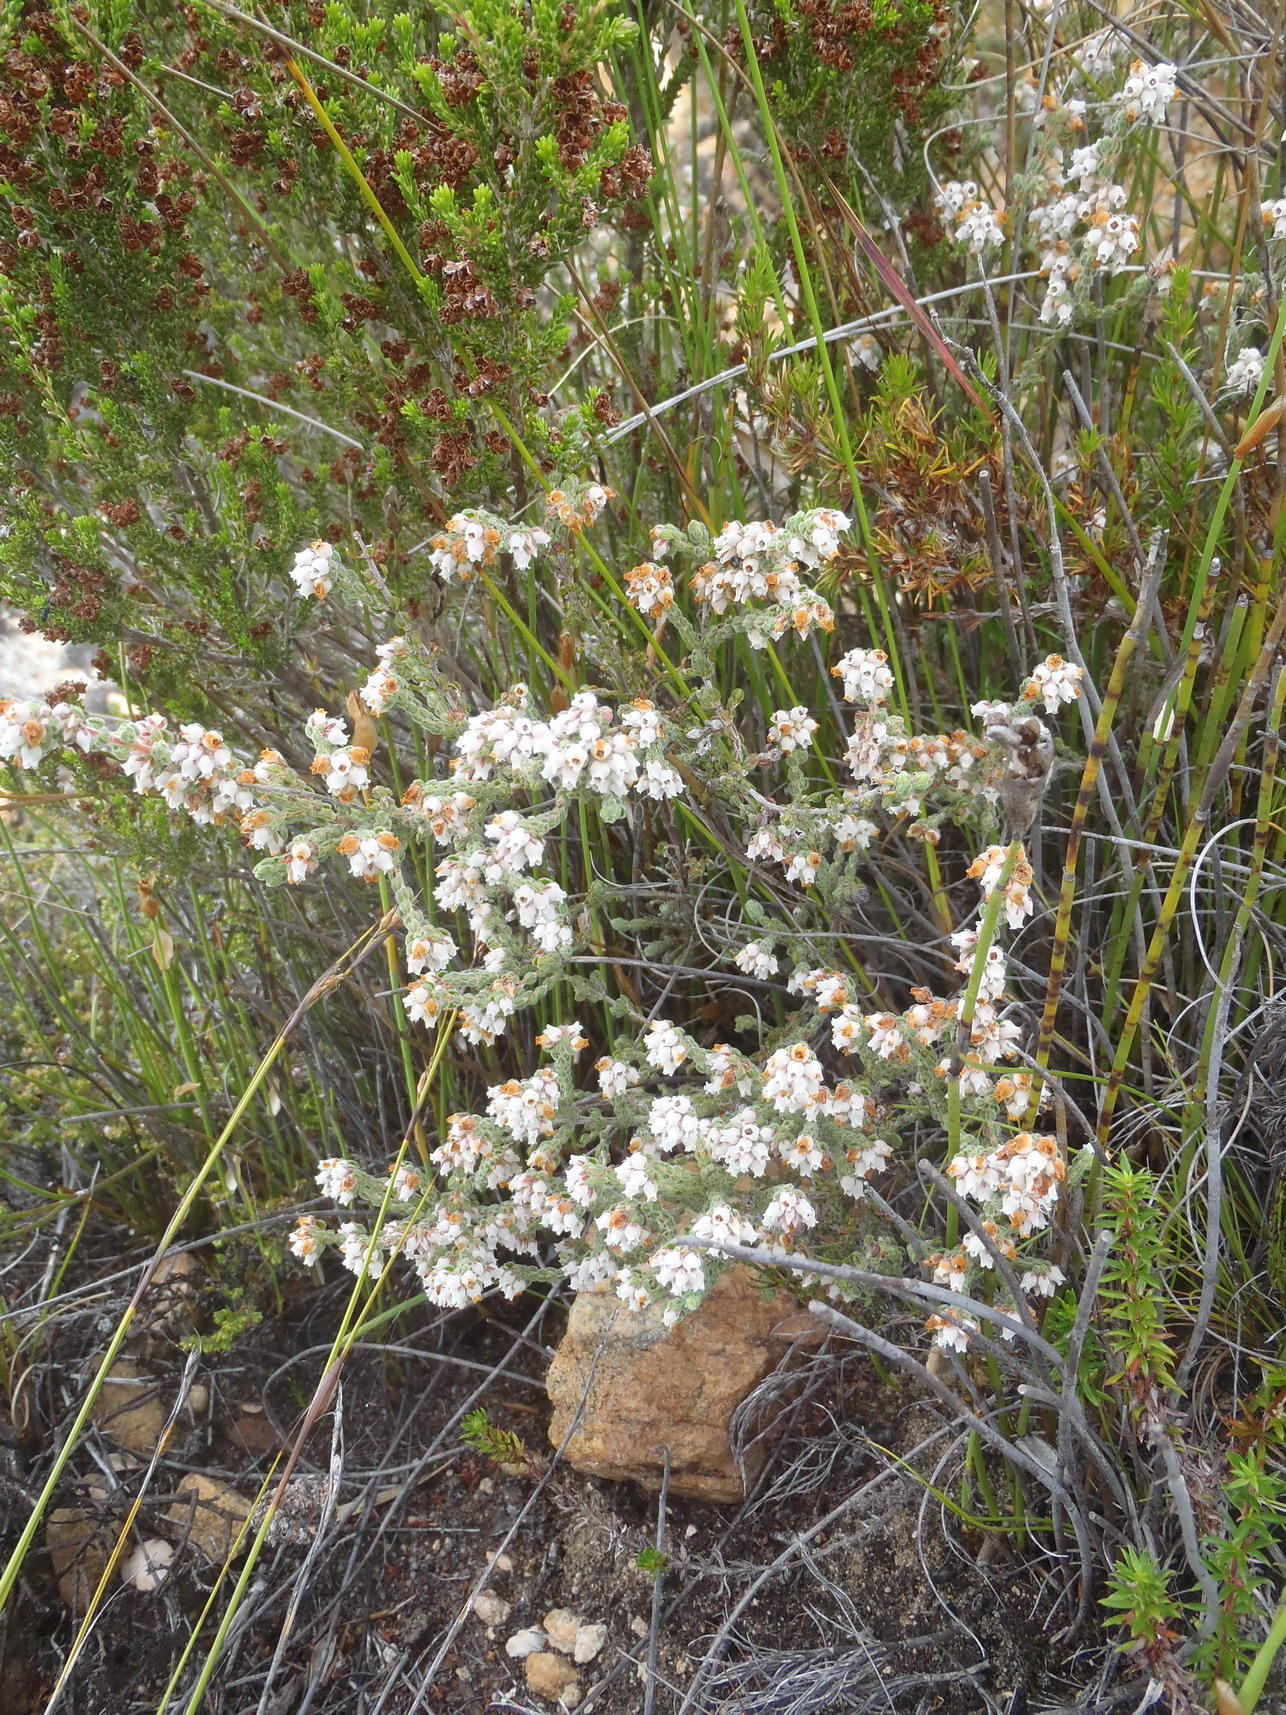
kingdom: Plantae
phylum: Tracheophyta
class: Magnoliopsida
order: Ericales
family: Ericaceae
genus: Erica
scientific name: Erica oreotragus
